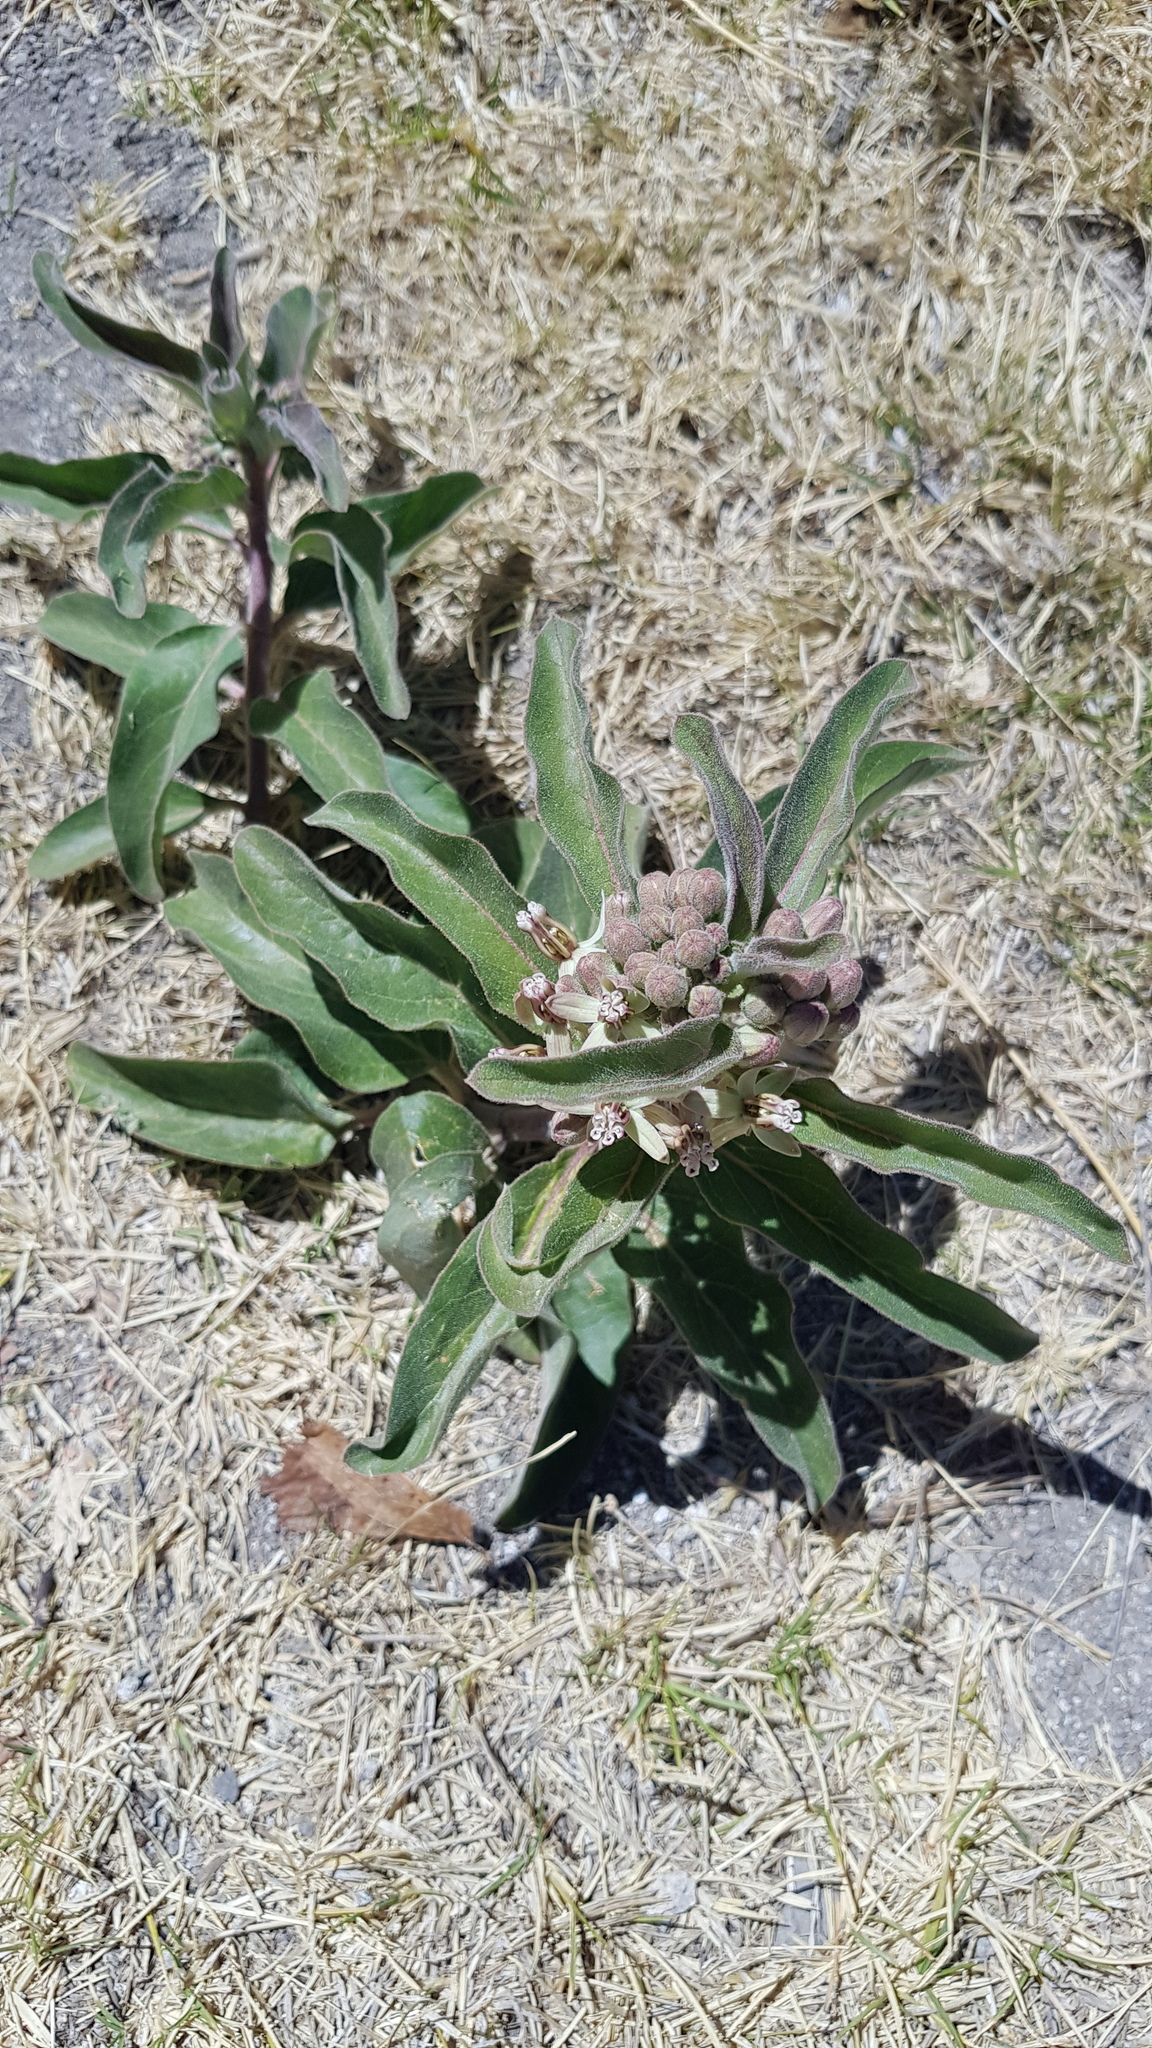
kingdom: Plantae
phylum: Tracheophyta
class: Magnoliopsida
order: Gentianales
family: Apocynaceae
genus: Asclepias
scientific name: Asclepias oenotheroides
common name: Zizotes milkweed
